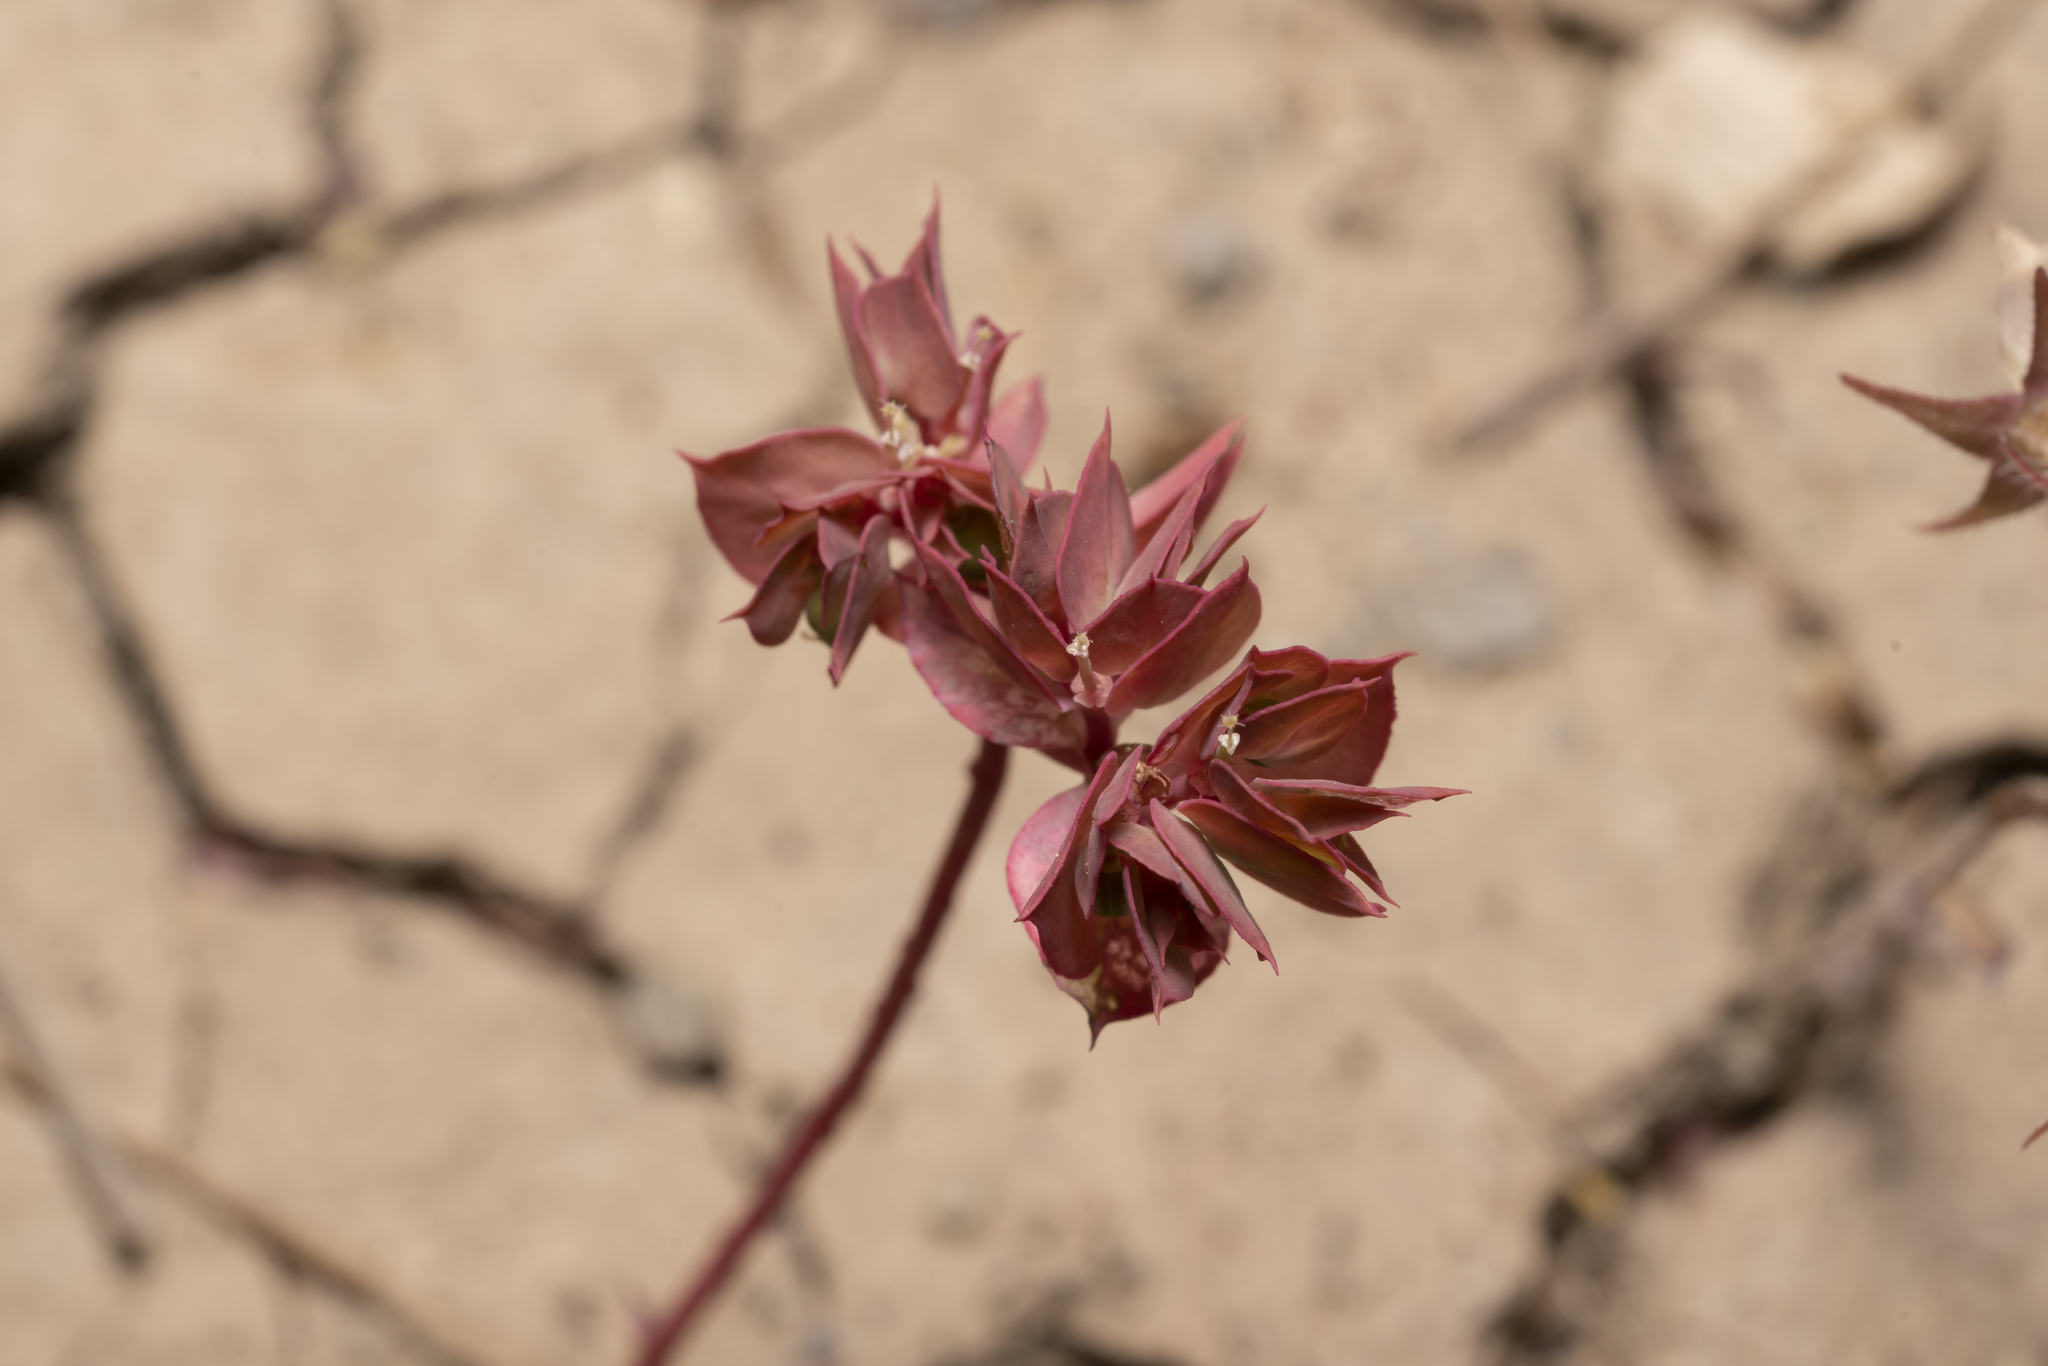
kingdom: Plantae
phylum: Tracheophyta
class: Magnoliopsida
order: Malpighiales
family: Euphorbiaceae
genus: Euphorbia
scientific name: Euphorbia falcata
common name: Sickle spurge
